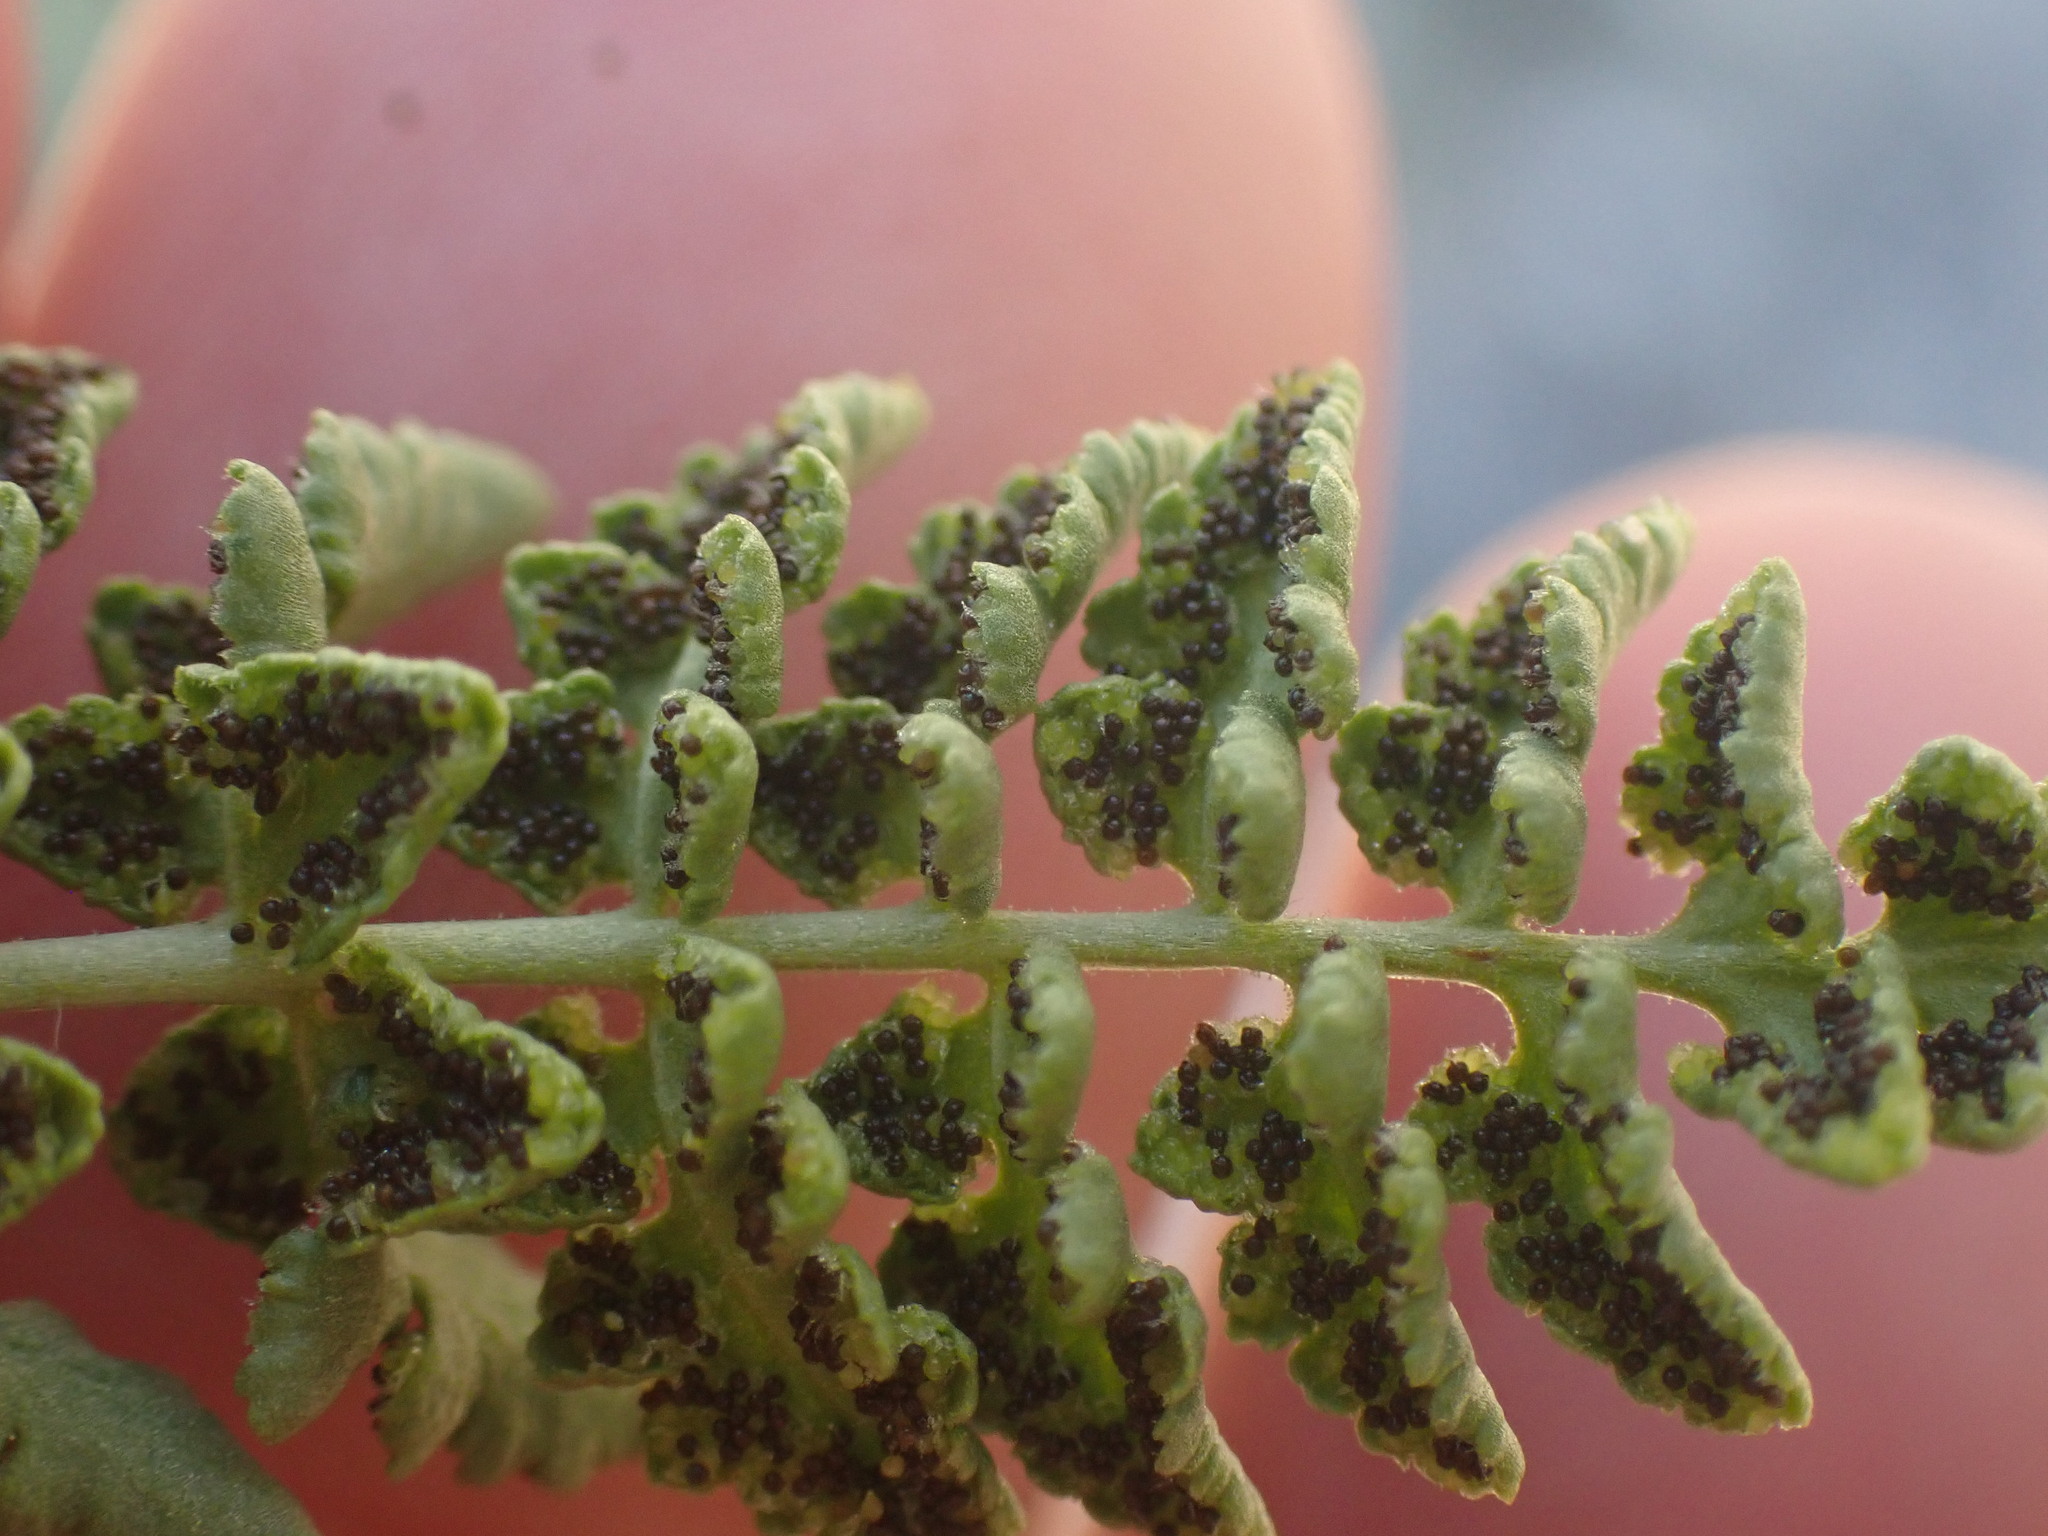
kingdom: Plantae
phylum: Tracheophyta
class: Polypodiopsida
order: Polypodiales
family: Woodsiaceae
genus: Physematium
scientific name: Physematium oreganum
